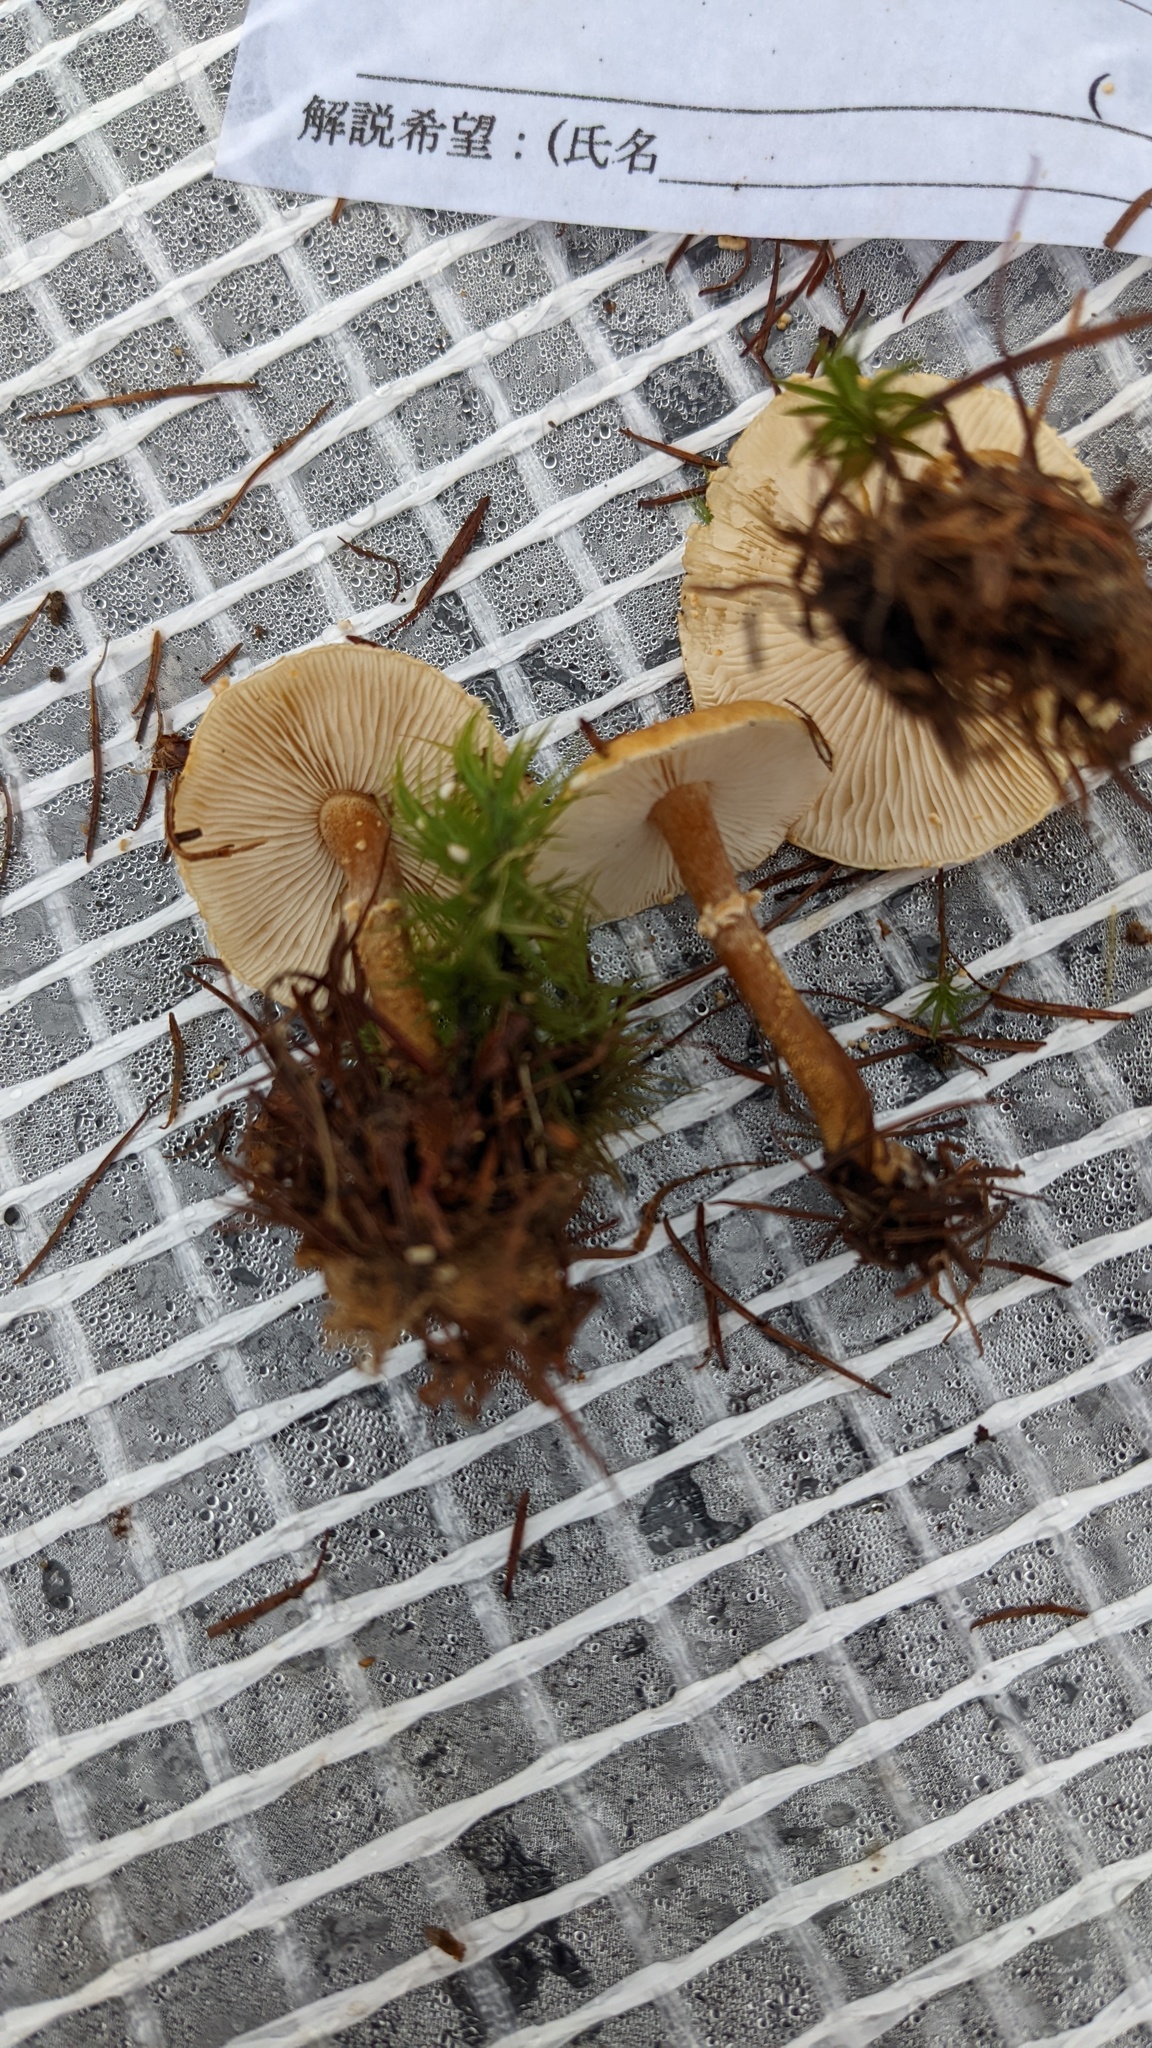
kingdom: Fungi
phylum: Basidiomycota
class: Agaricomycetes
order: Agaricales
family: Tricholomataceae
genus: Cystoderma
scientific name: Cystoderma amianthinum
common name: Earthy powdercap
